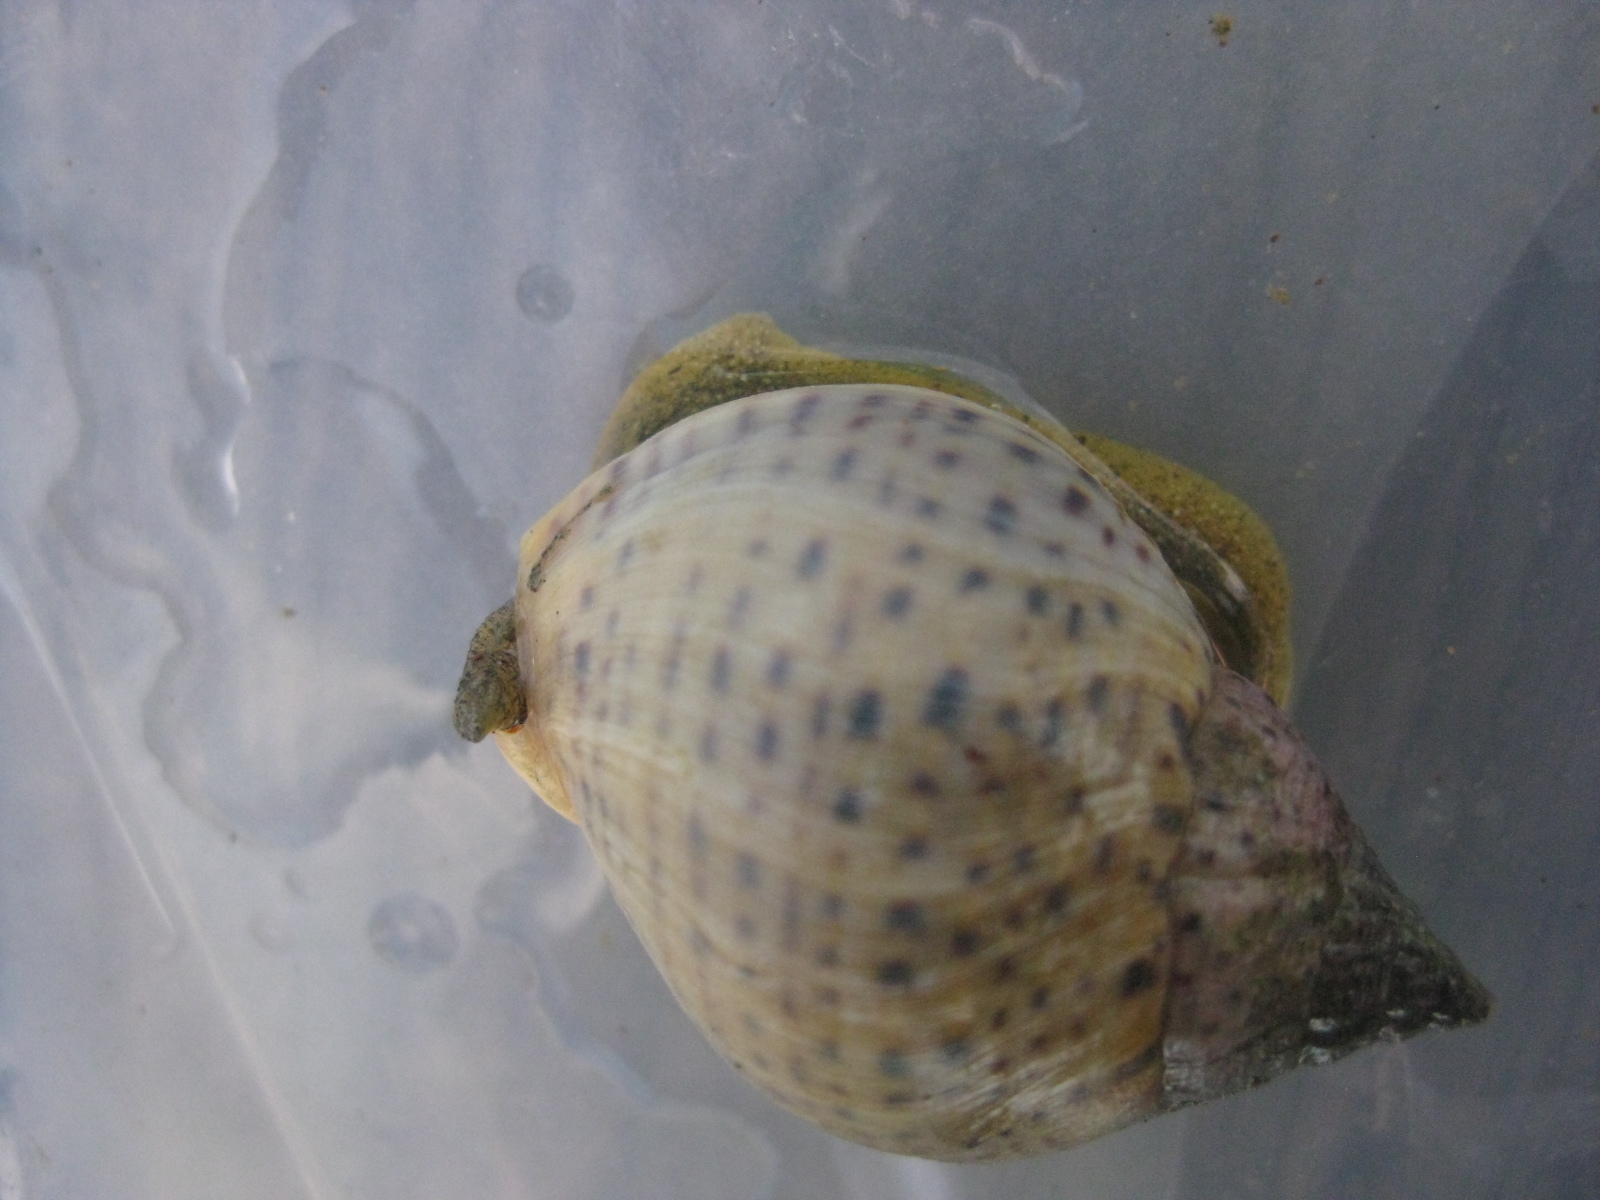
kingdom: Animalia
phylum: Mollusca
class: Gastropoda
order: Neogastropoda
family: Cominellidae
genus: Cominella
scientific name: Cominella adspersa
